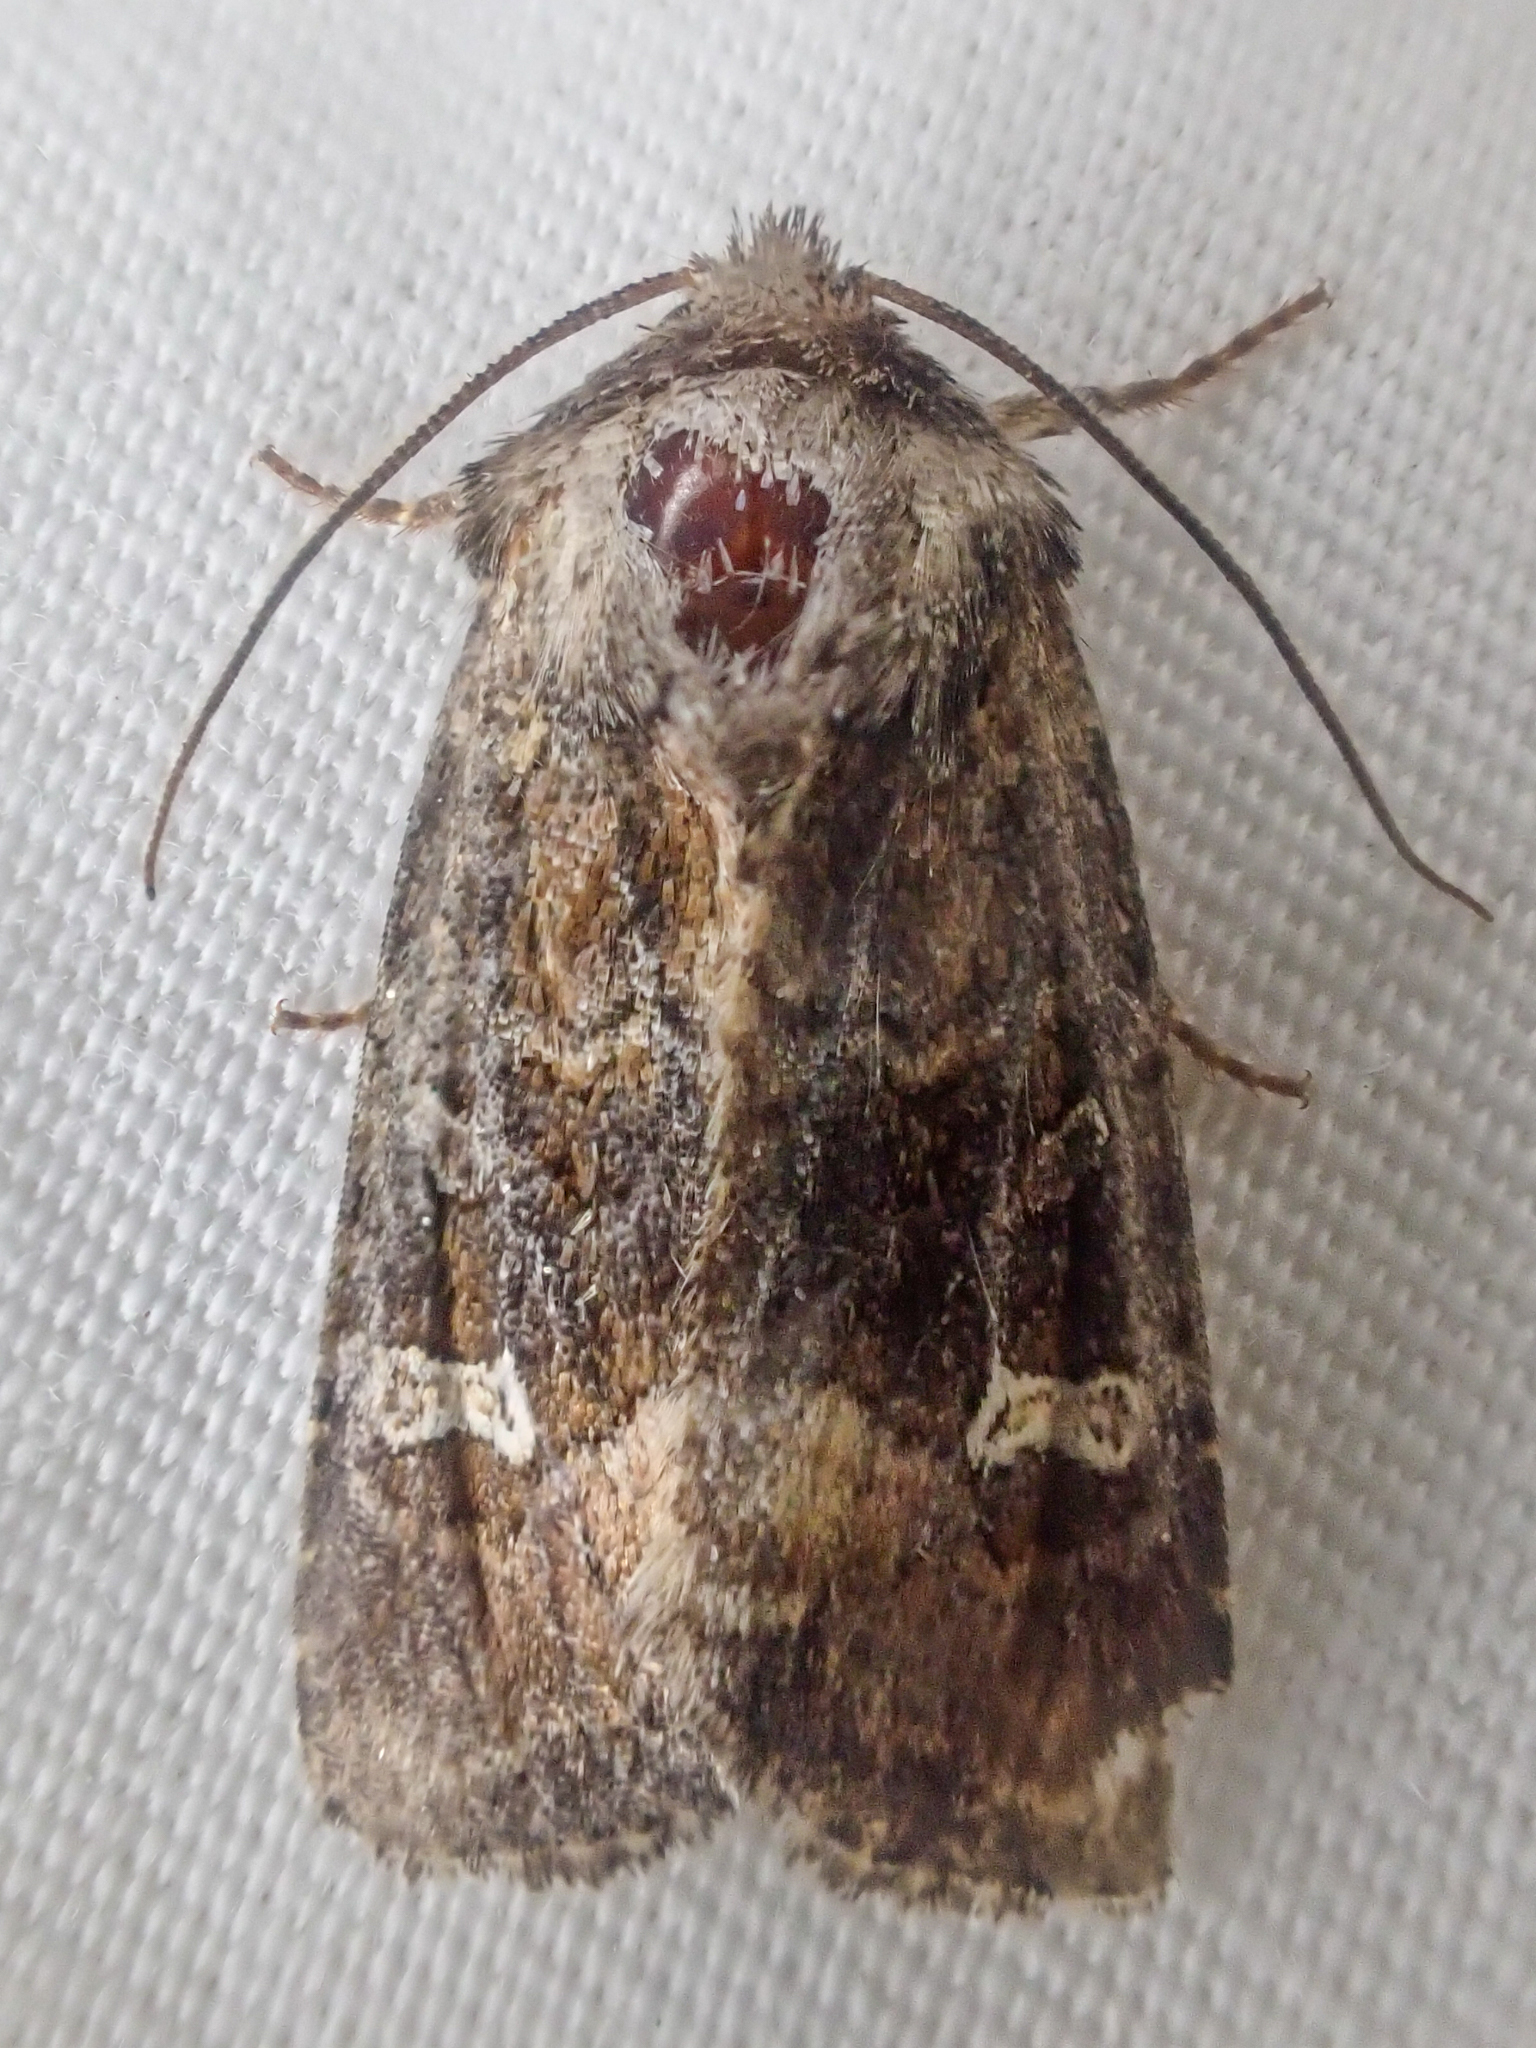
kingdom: Animalia
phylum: Arthropoda
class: Insecta
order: Lepidoptera
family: Noctuidae
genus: Lacinipolia
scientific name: Lacinipolia circumcincta
